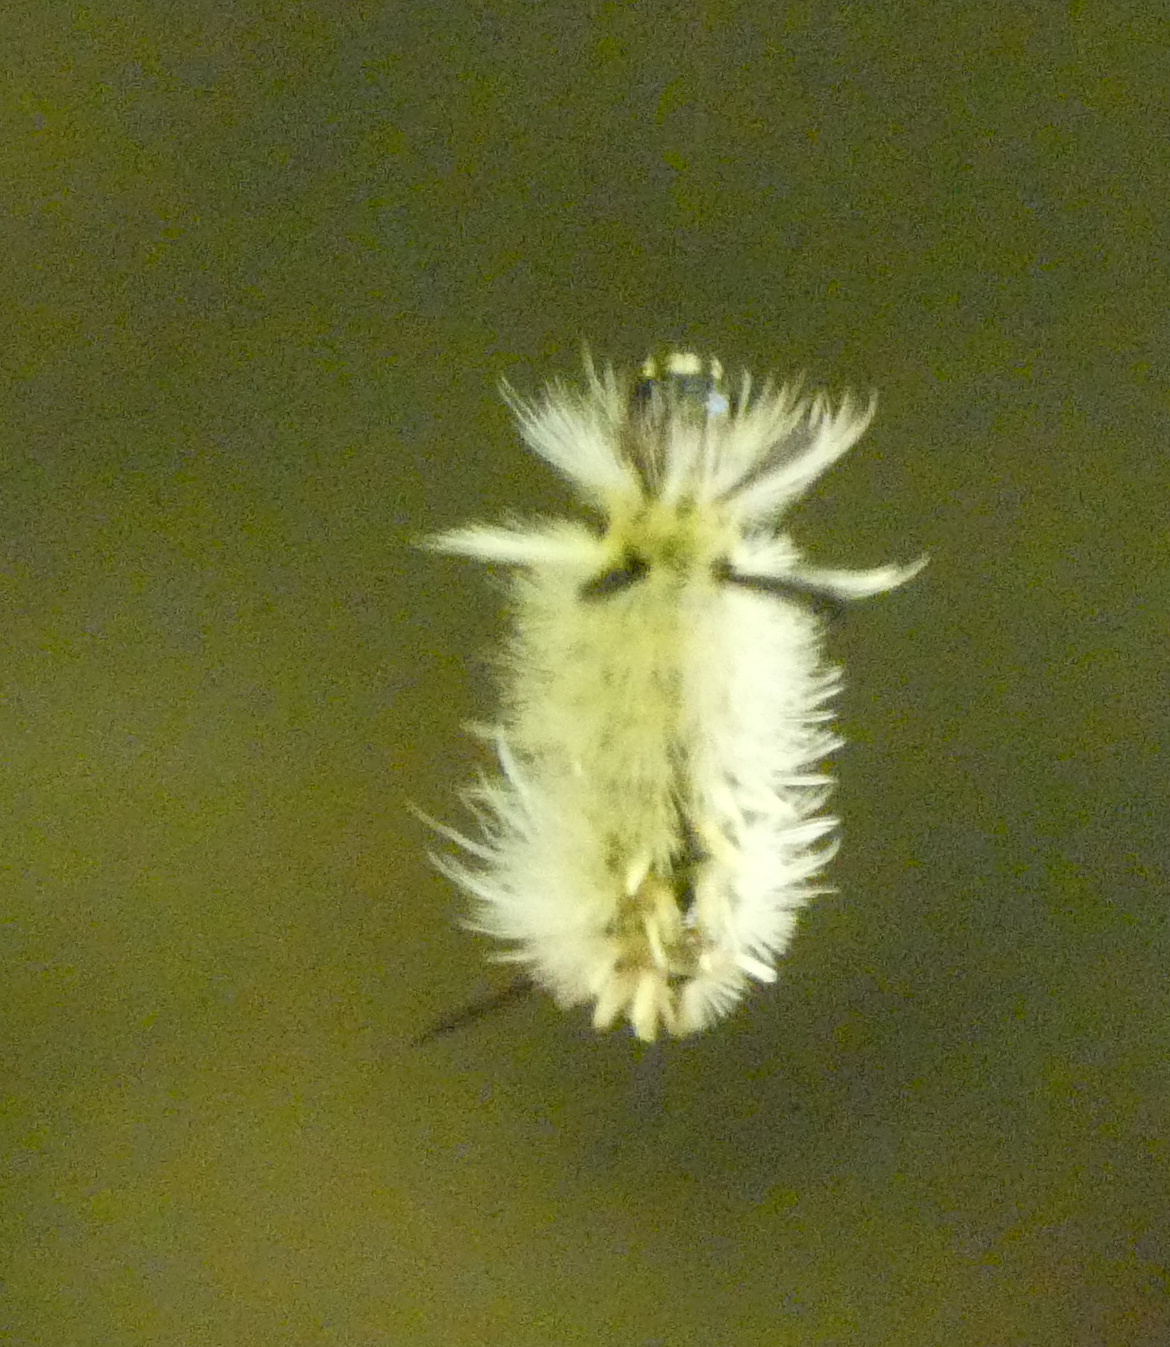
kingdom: Animalia
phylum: Arthropoda
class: Insecta
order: Lepidoptera
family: Erebidae
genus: Halysidota
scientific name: Halysidota tessellaris
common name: Banded tussock moth
